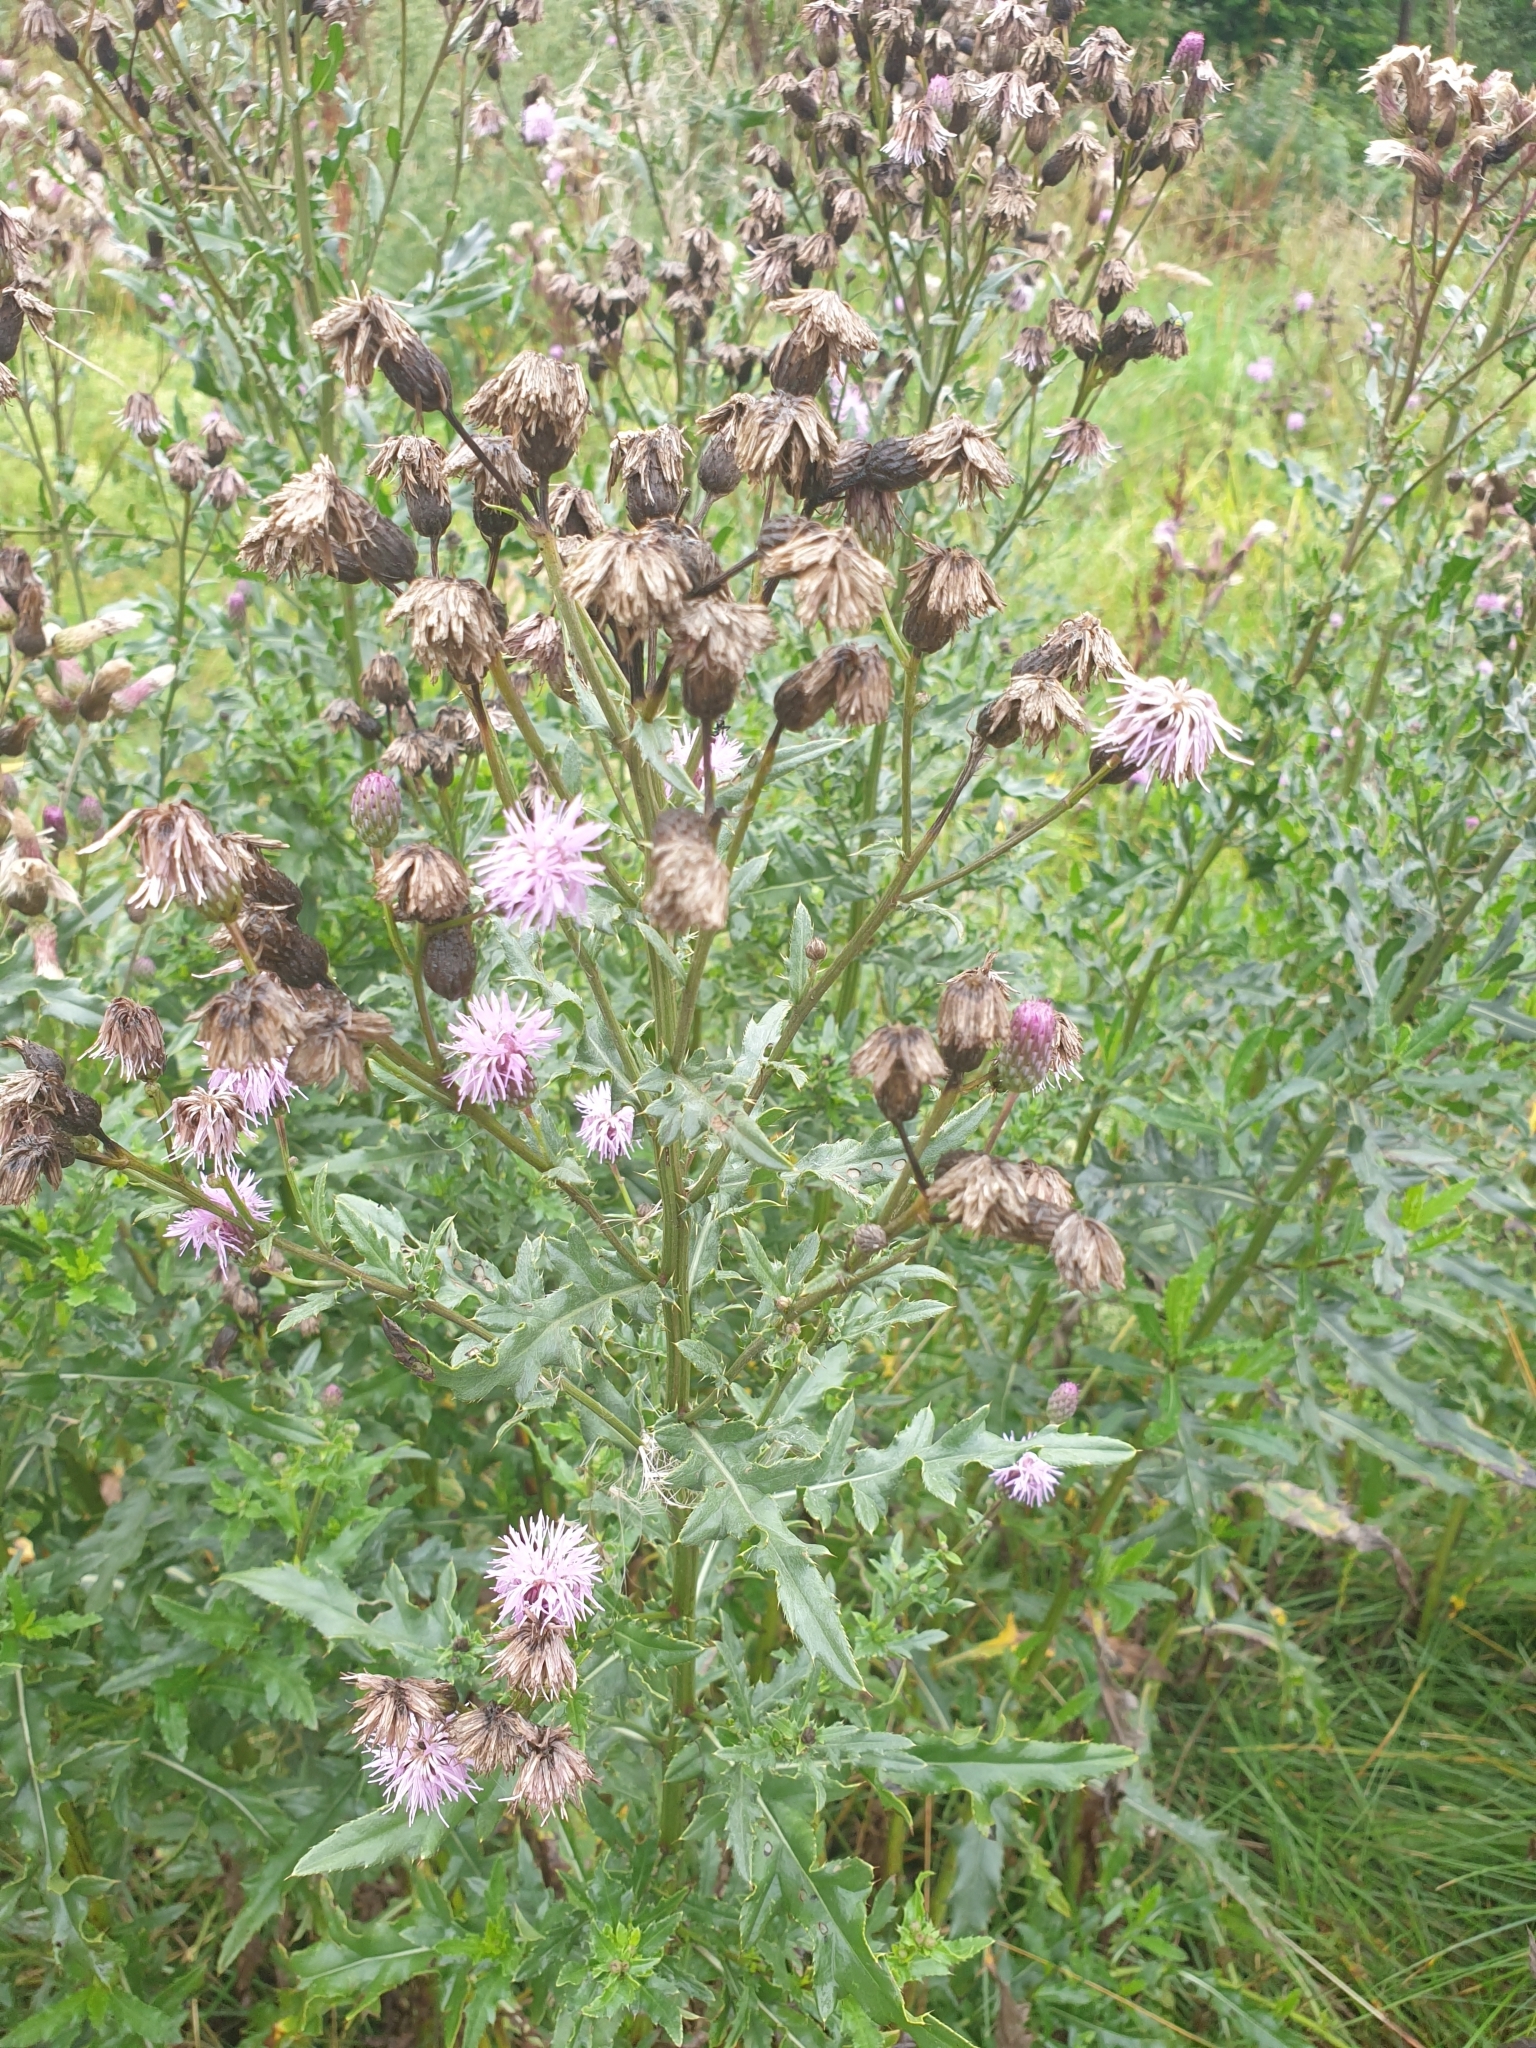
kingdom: Plantae
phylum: Tracheophyta
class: Magnoliopsida
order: Asterales
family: Asteraceae
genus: Cirsium
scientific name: Cirsium arvense
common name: Creeping thistle
